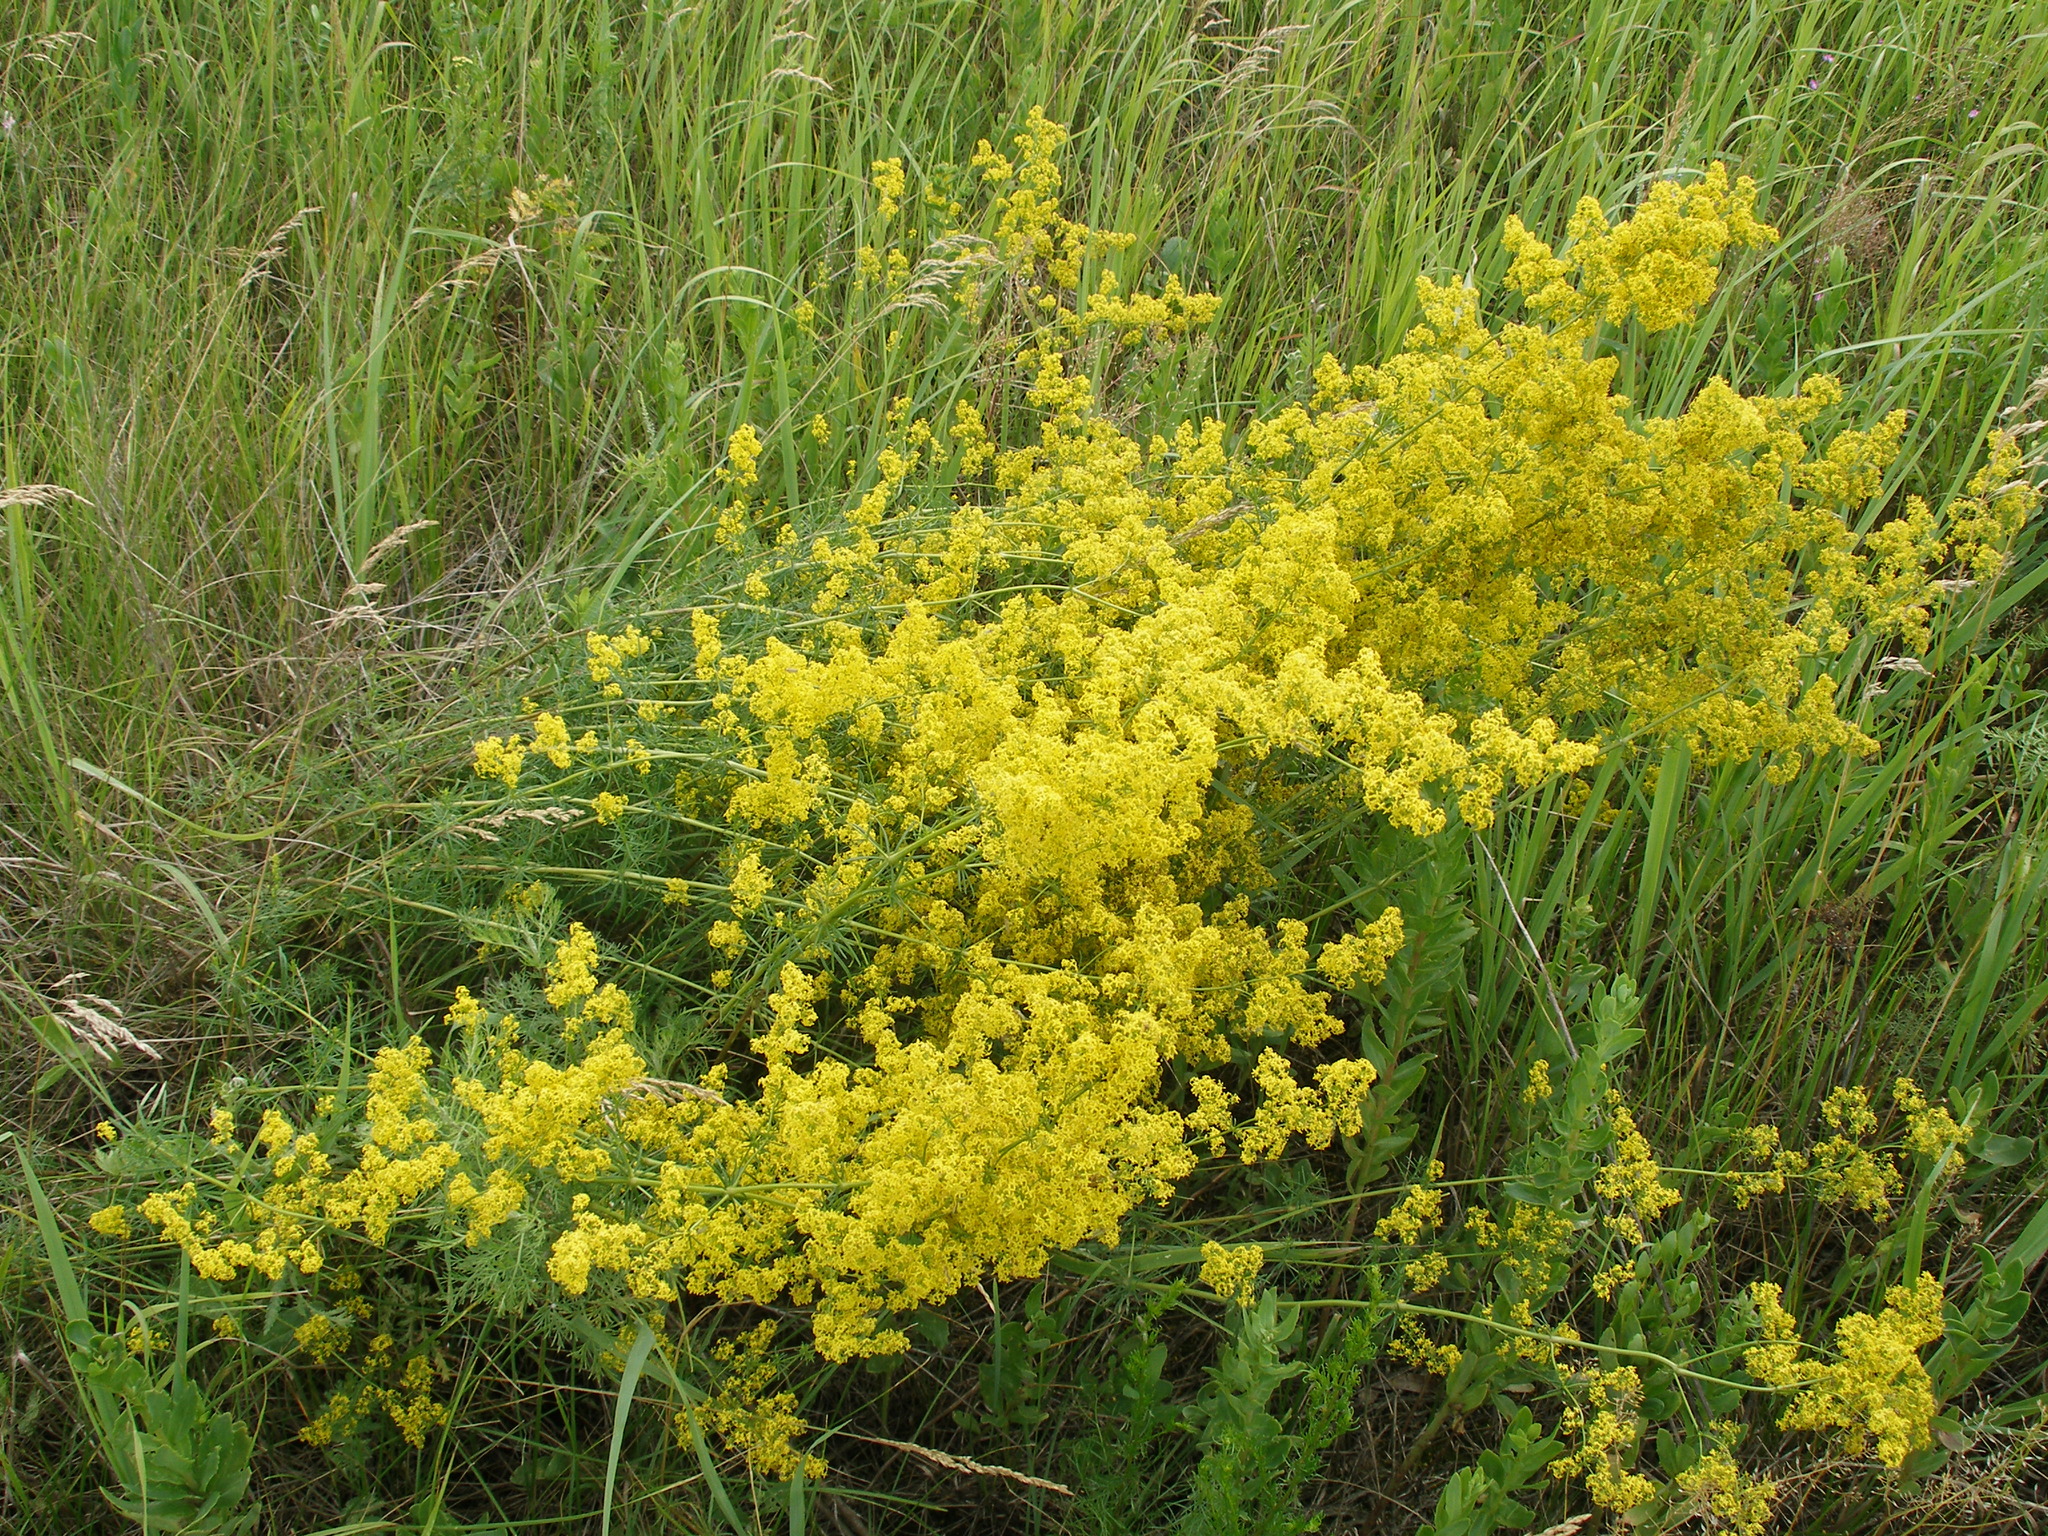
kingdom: Plantae
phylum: Tracheophyta
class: Magnoliopsida
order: Gentianales
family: Rubiaceae
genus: Galium
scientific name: Galium verum
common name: Lady's bedstraw
